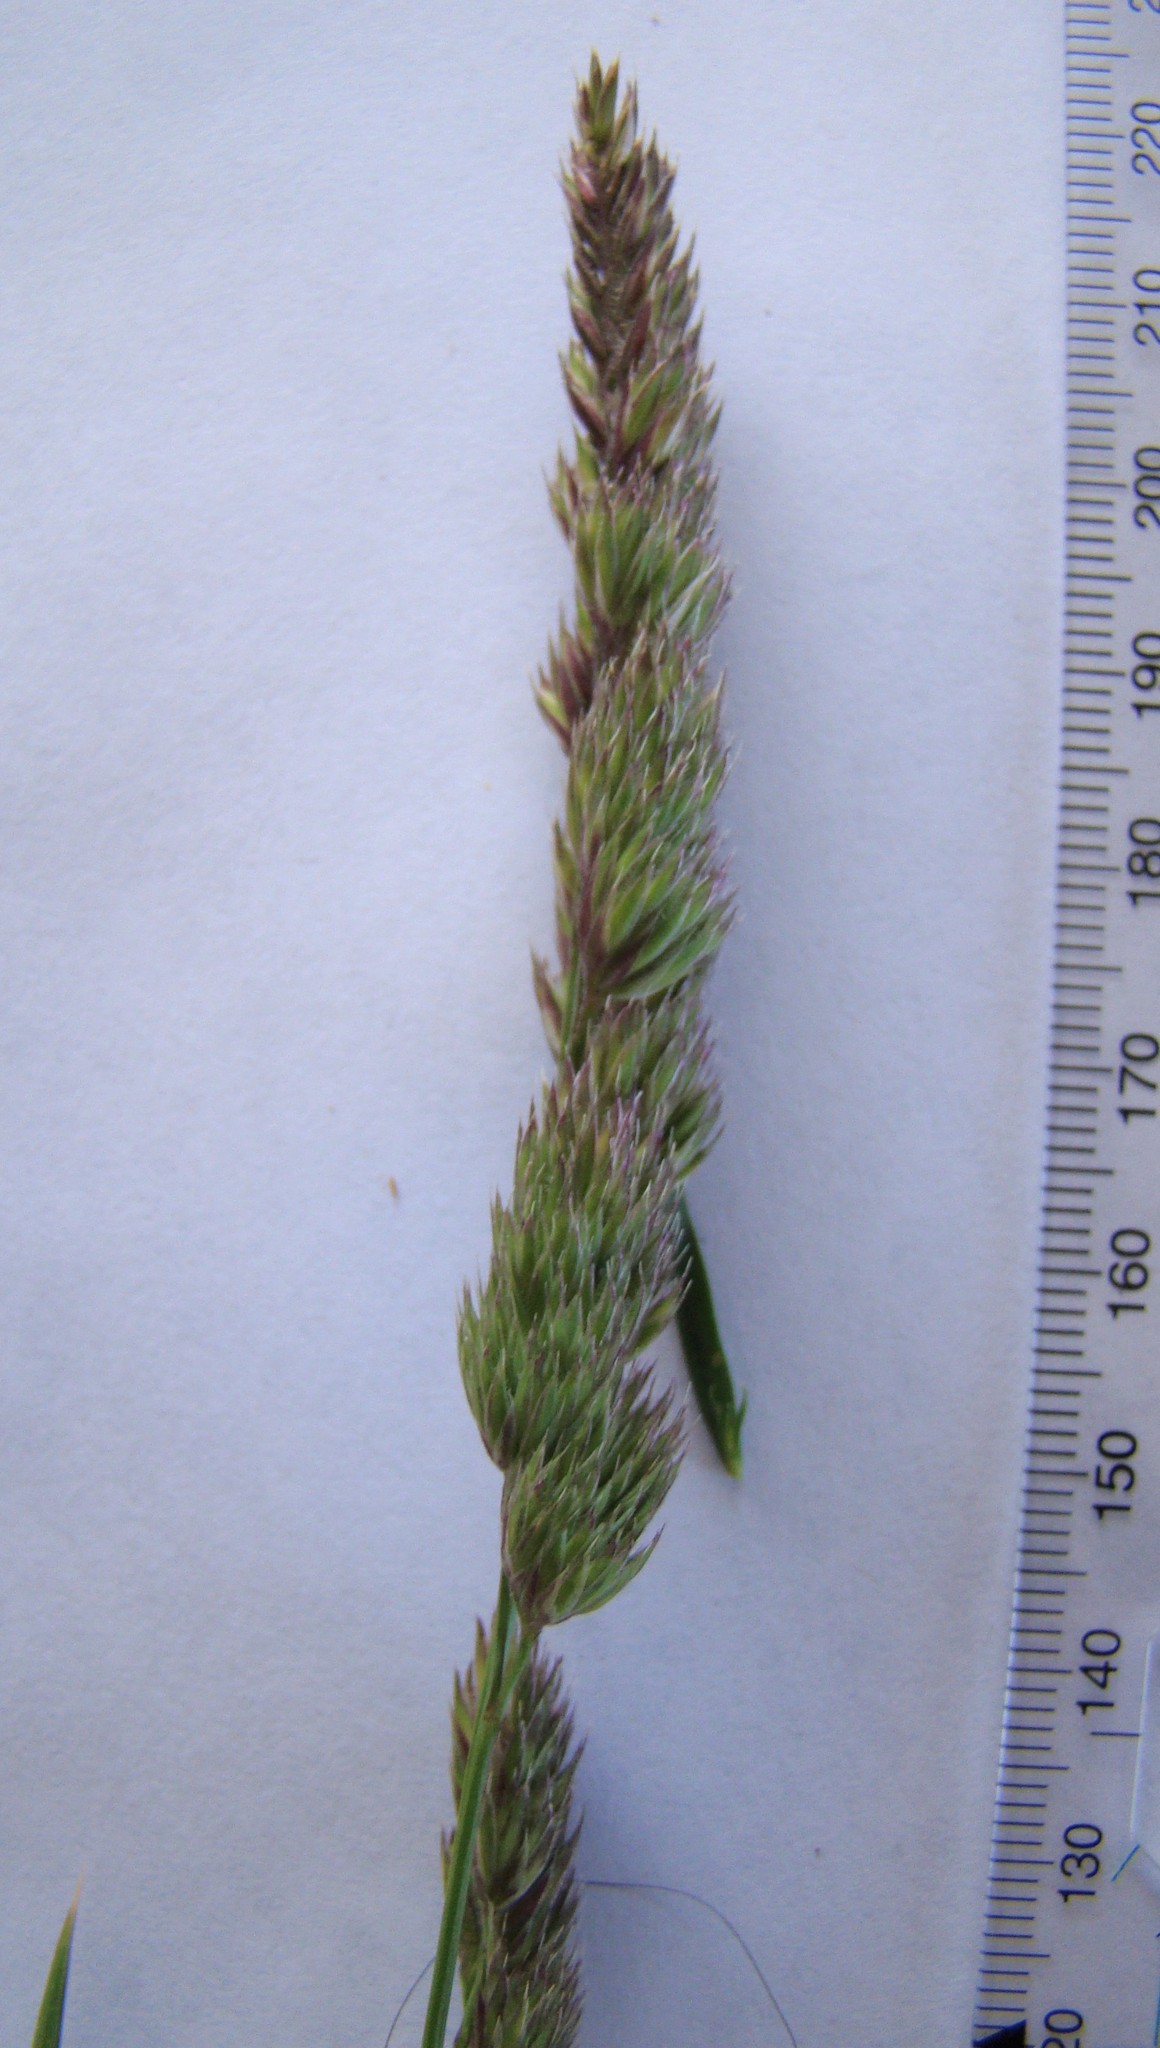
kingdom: Plantae
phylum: Tracheophyta
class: Liliopsida
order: Poales
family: Poaceae
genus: Dactylis
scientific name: Dactylis glomerata
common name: Orchardgrass
